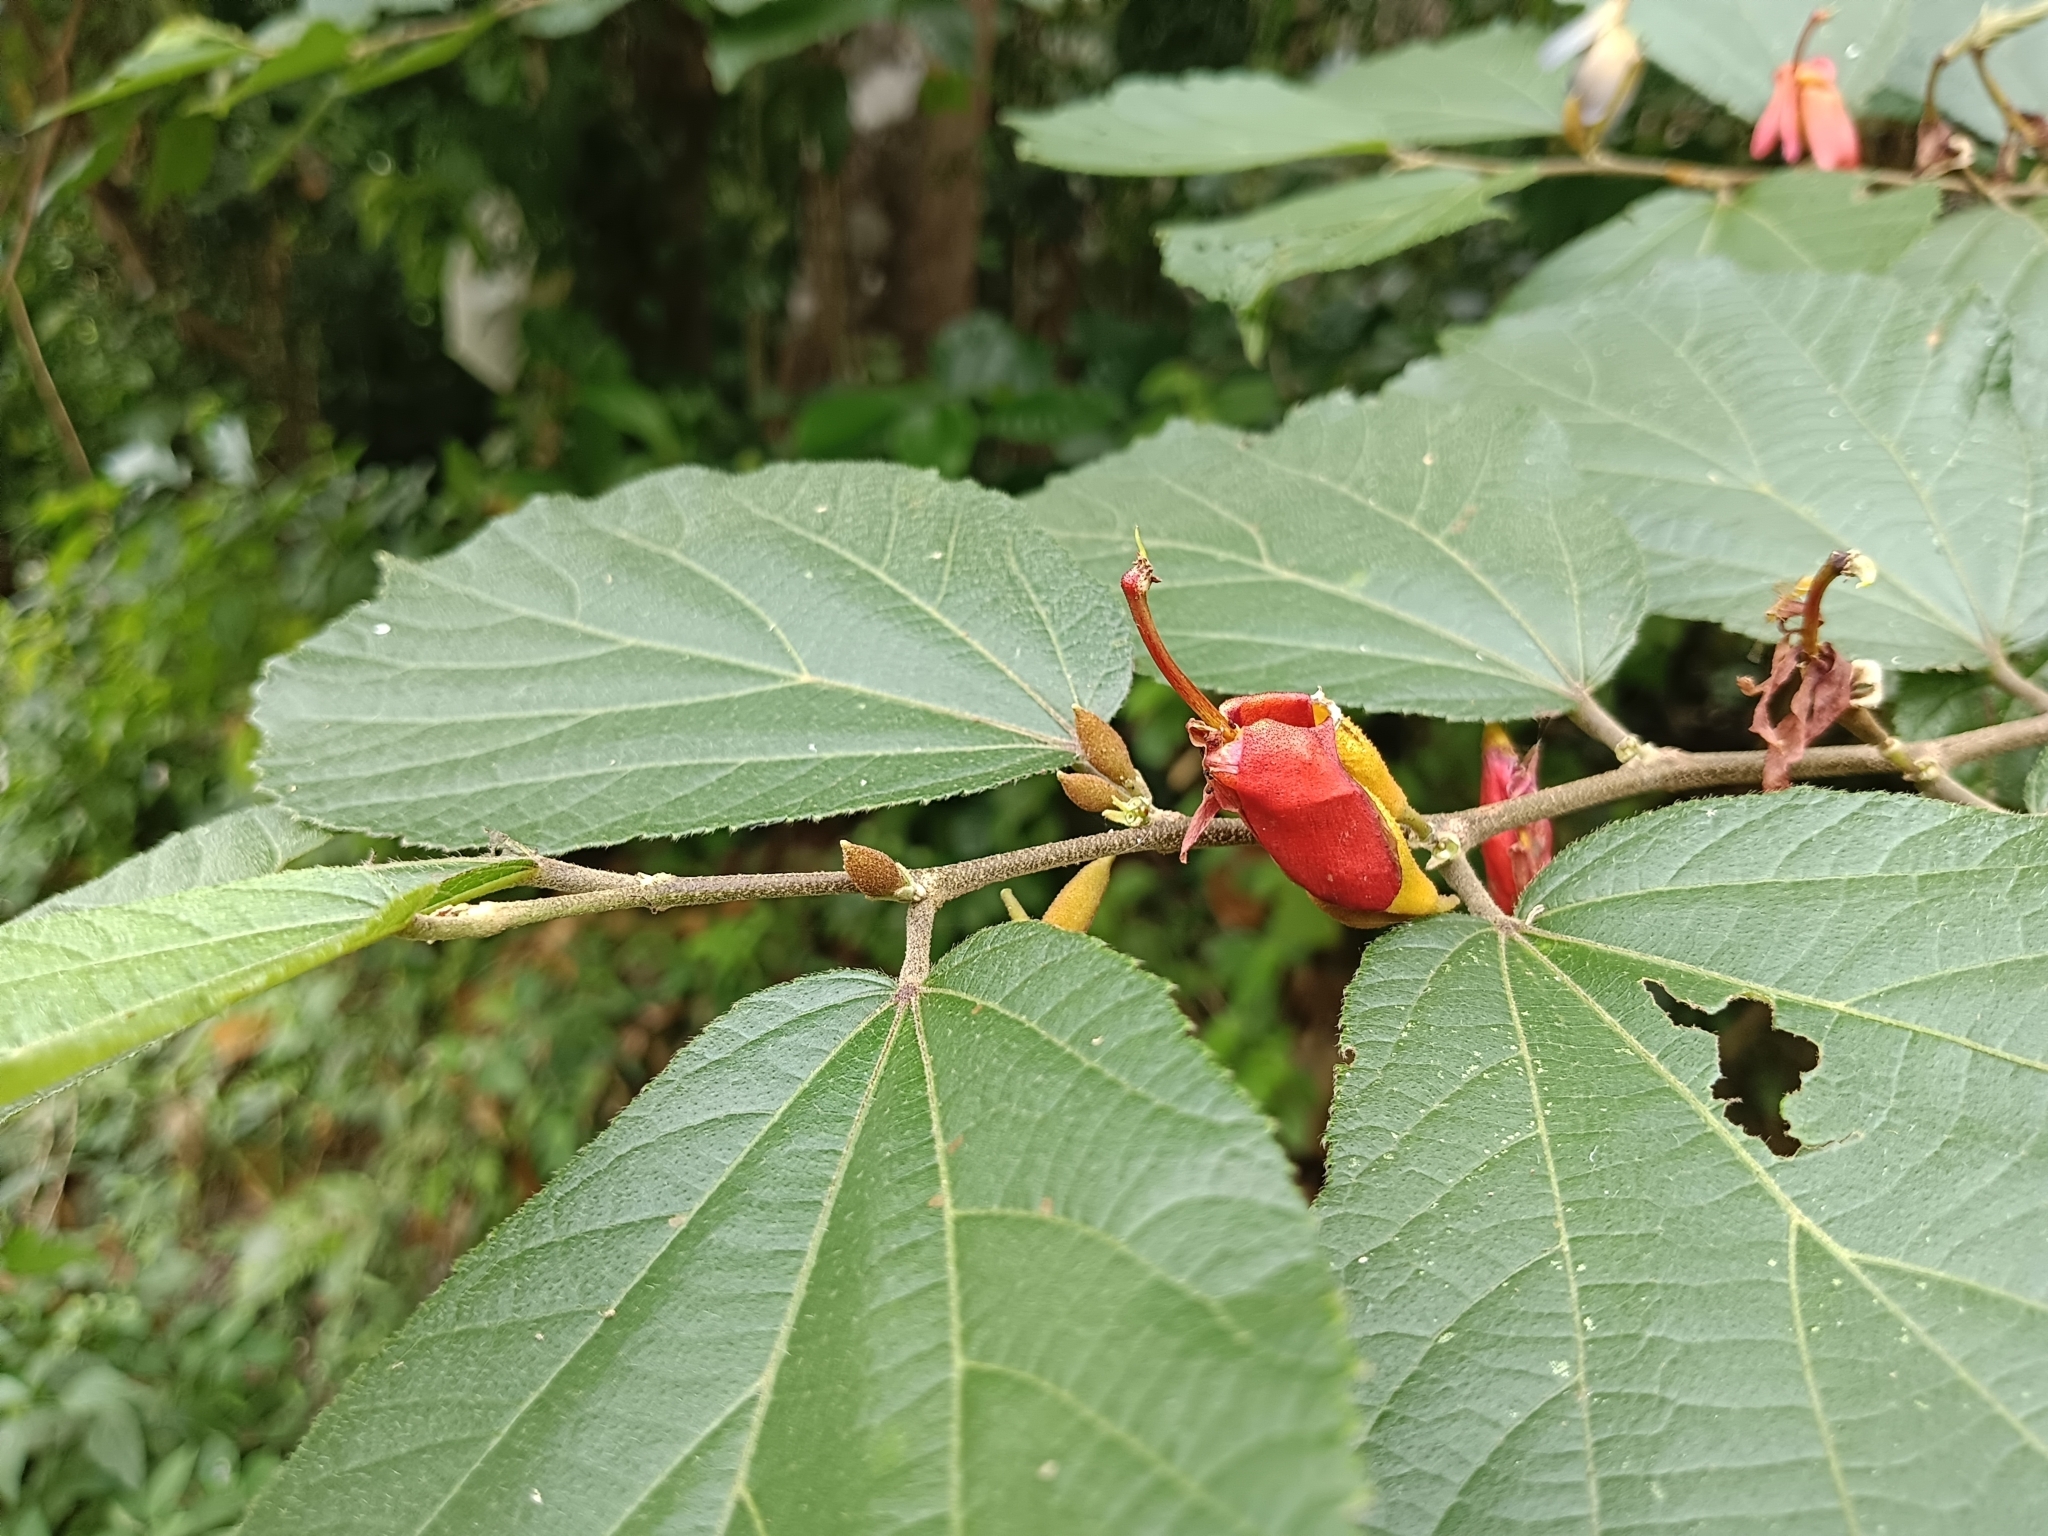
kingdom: Plantae
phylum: Tracheophyta
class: Magnoliopsida
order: Malvales
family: Malvaceae
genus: Helicteres
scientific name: Helicteres isora
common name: East indian screwtree
